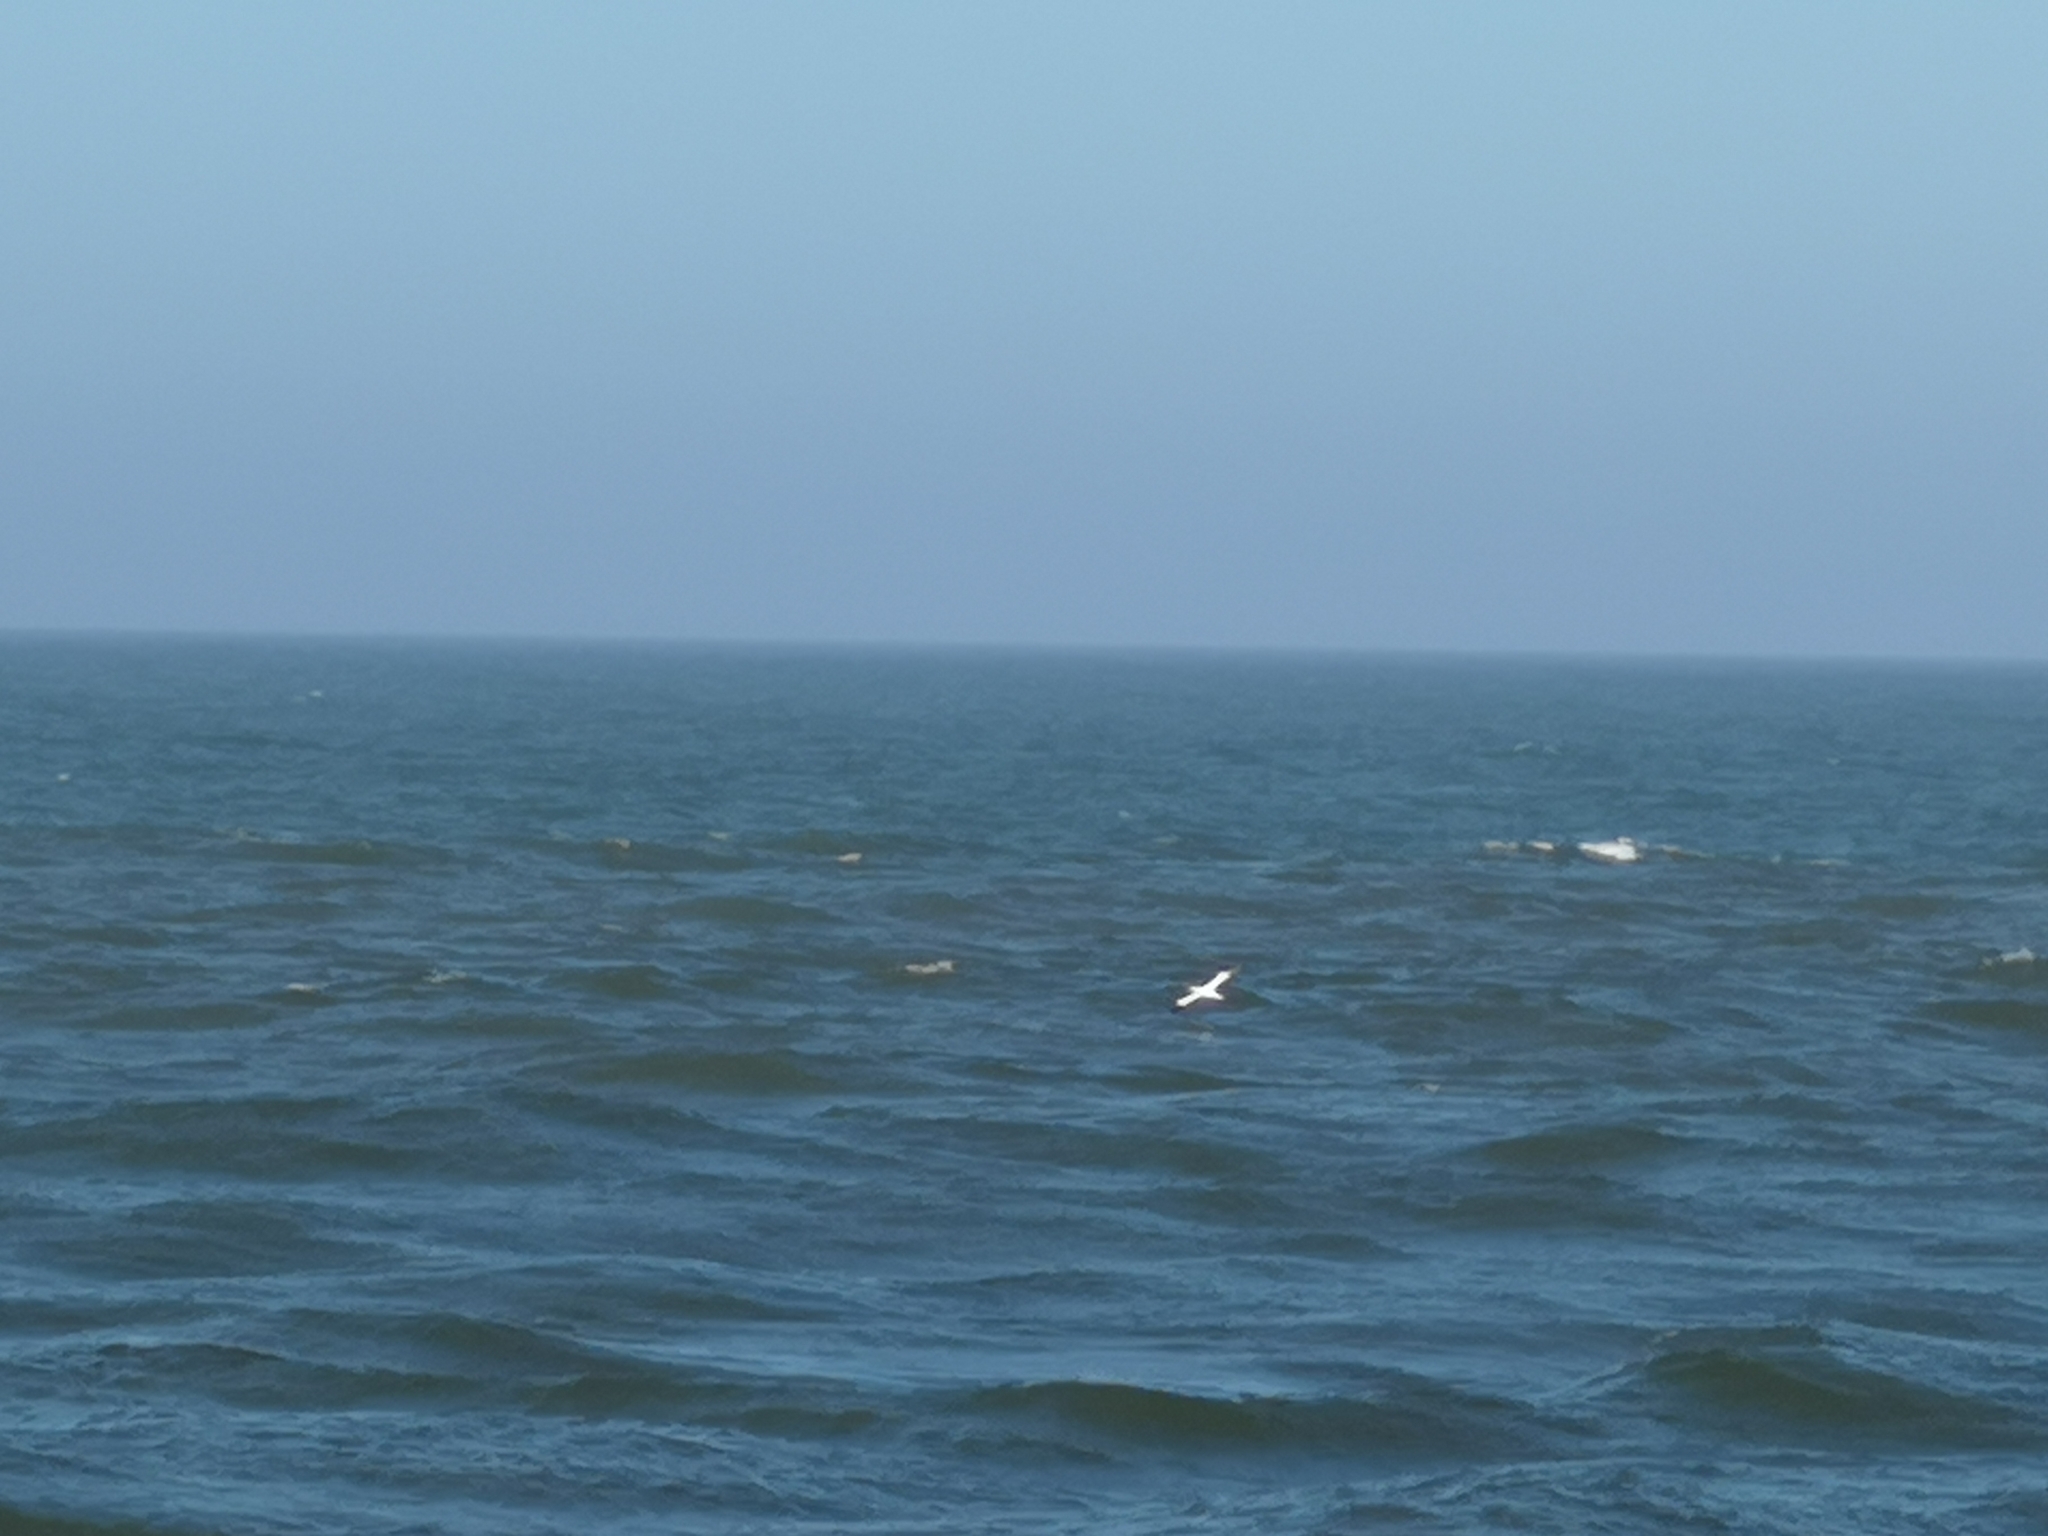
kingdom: Animalia
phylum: Chordata
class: Aves
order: Suliformes
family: Sulidae
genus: Morus
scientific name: Morus bassanus
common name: Northern gannet
